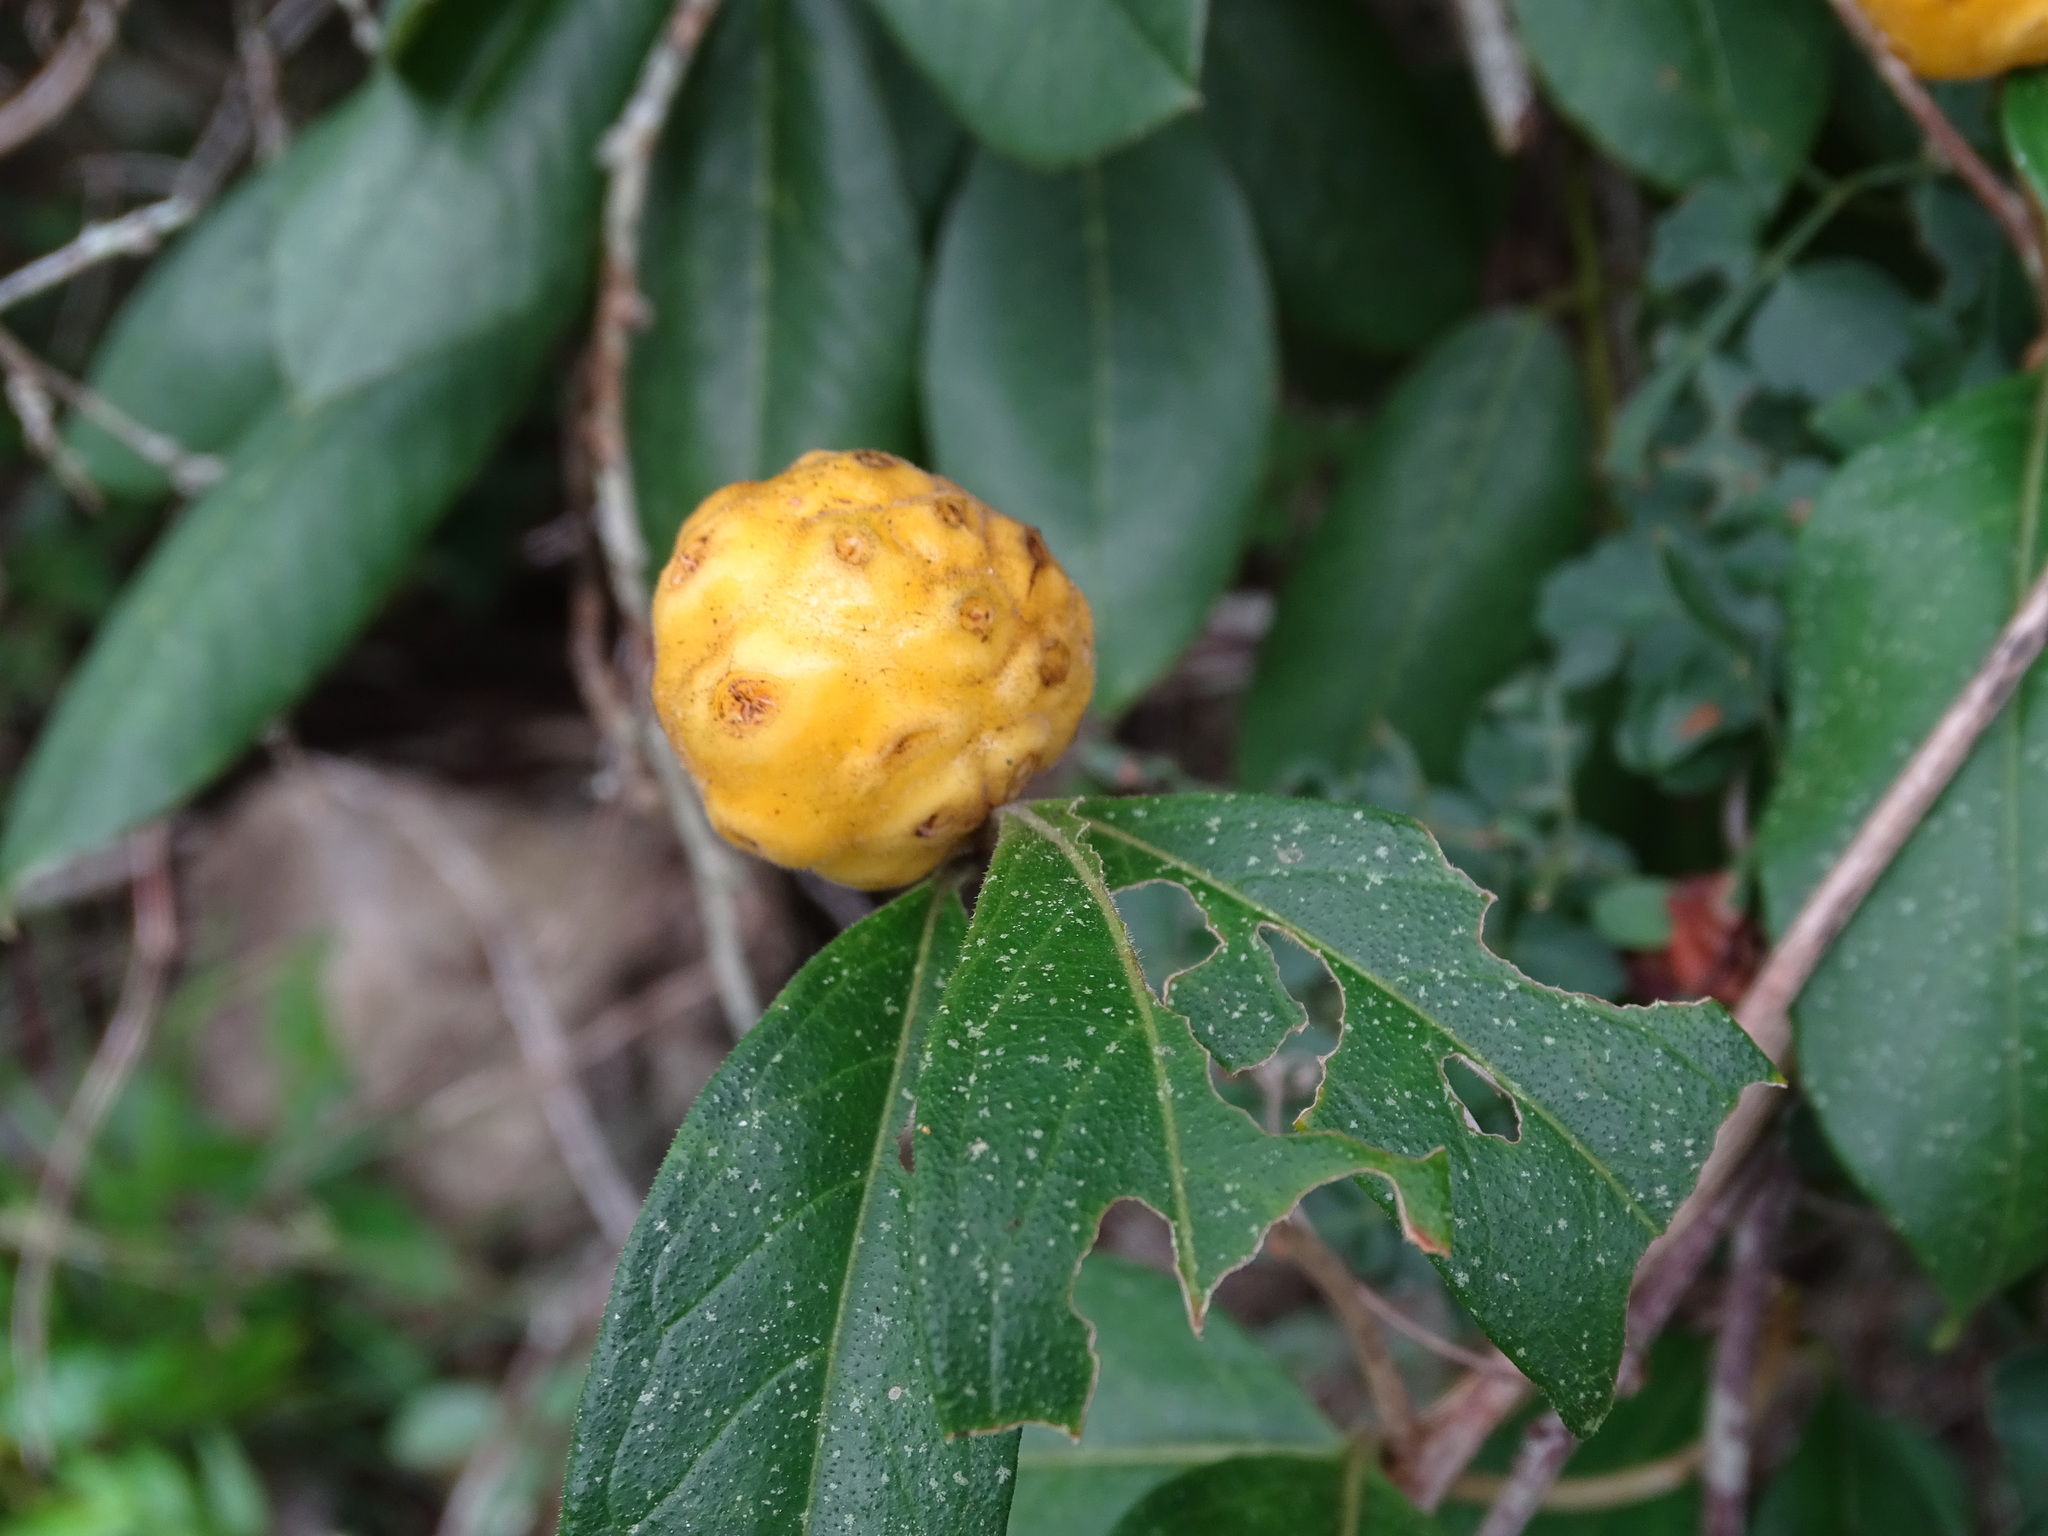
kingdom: Plantae
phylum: Tracheophyta
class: Magnoliopsida
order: Gentianales
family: Rubiaceae
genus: Morinda
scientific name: Morinda royoc
